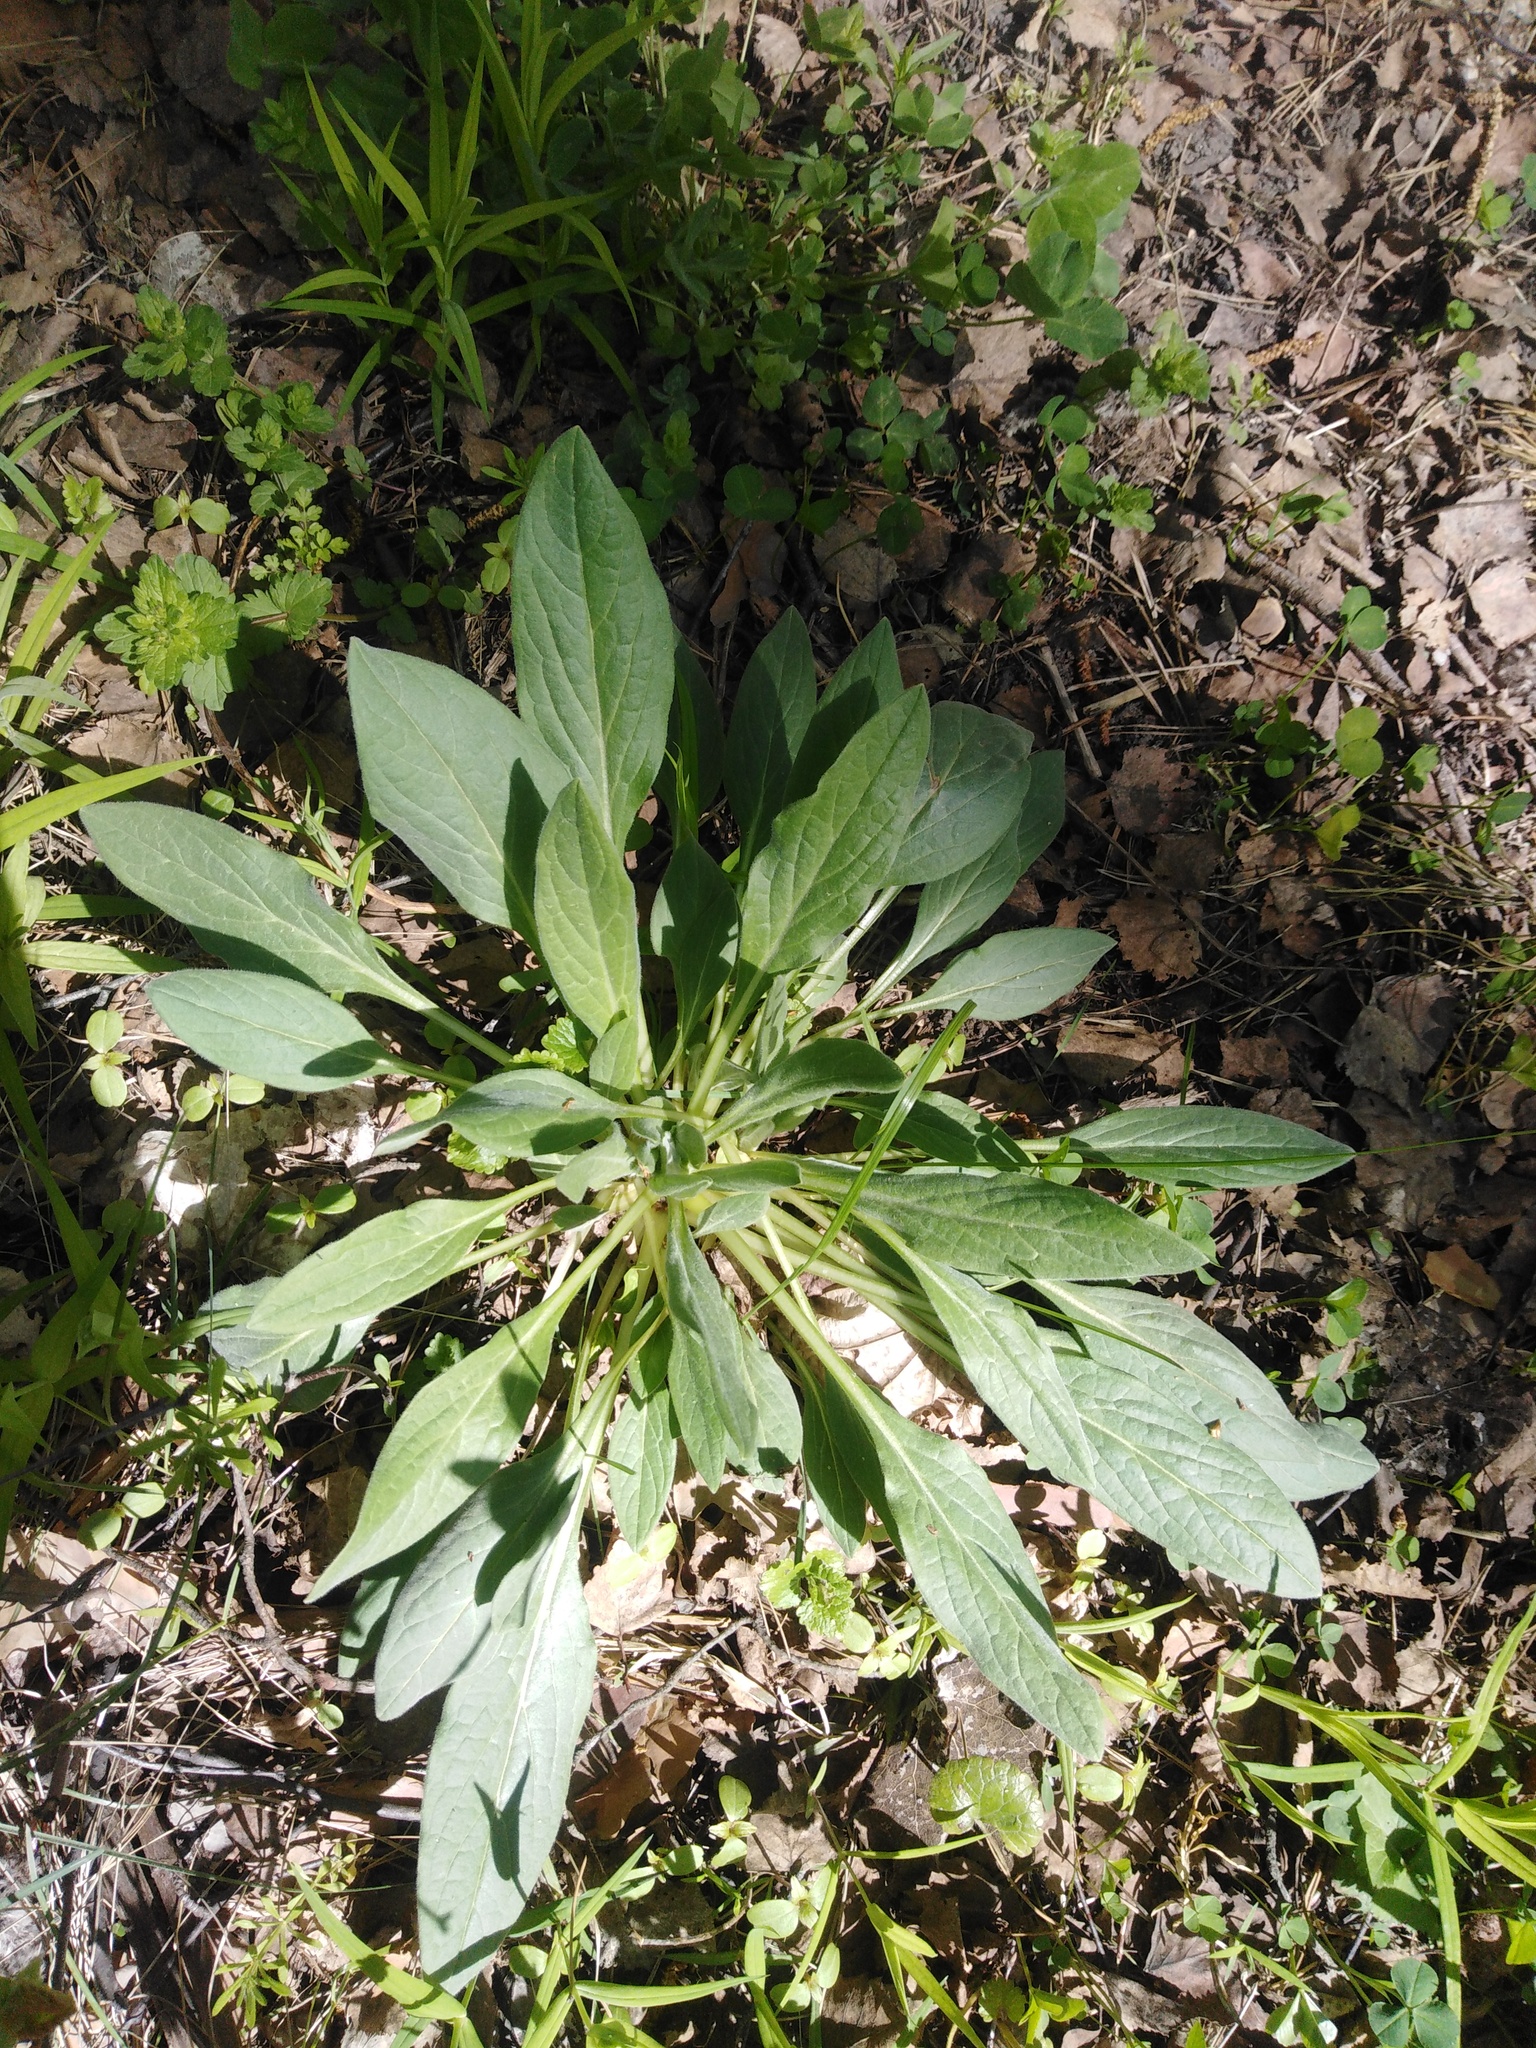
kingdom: Plantae
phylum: Tracheophyta
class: Magnoliopsida
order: Boraginales
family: Boraginaceae
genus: Cynoglossum
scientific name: Cynoglossum officinale
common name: Hound's-tongue
